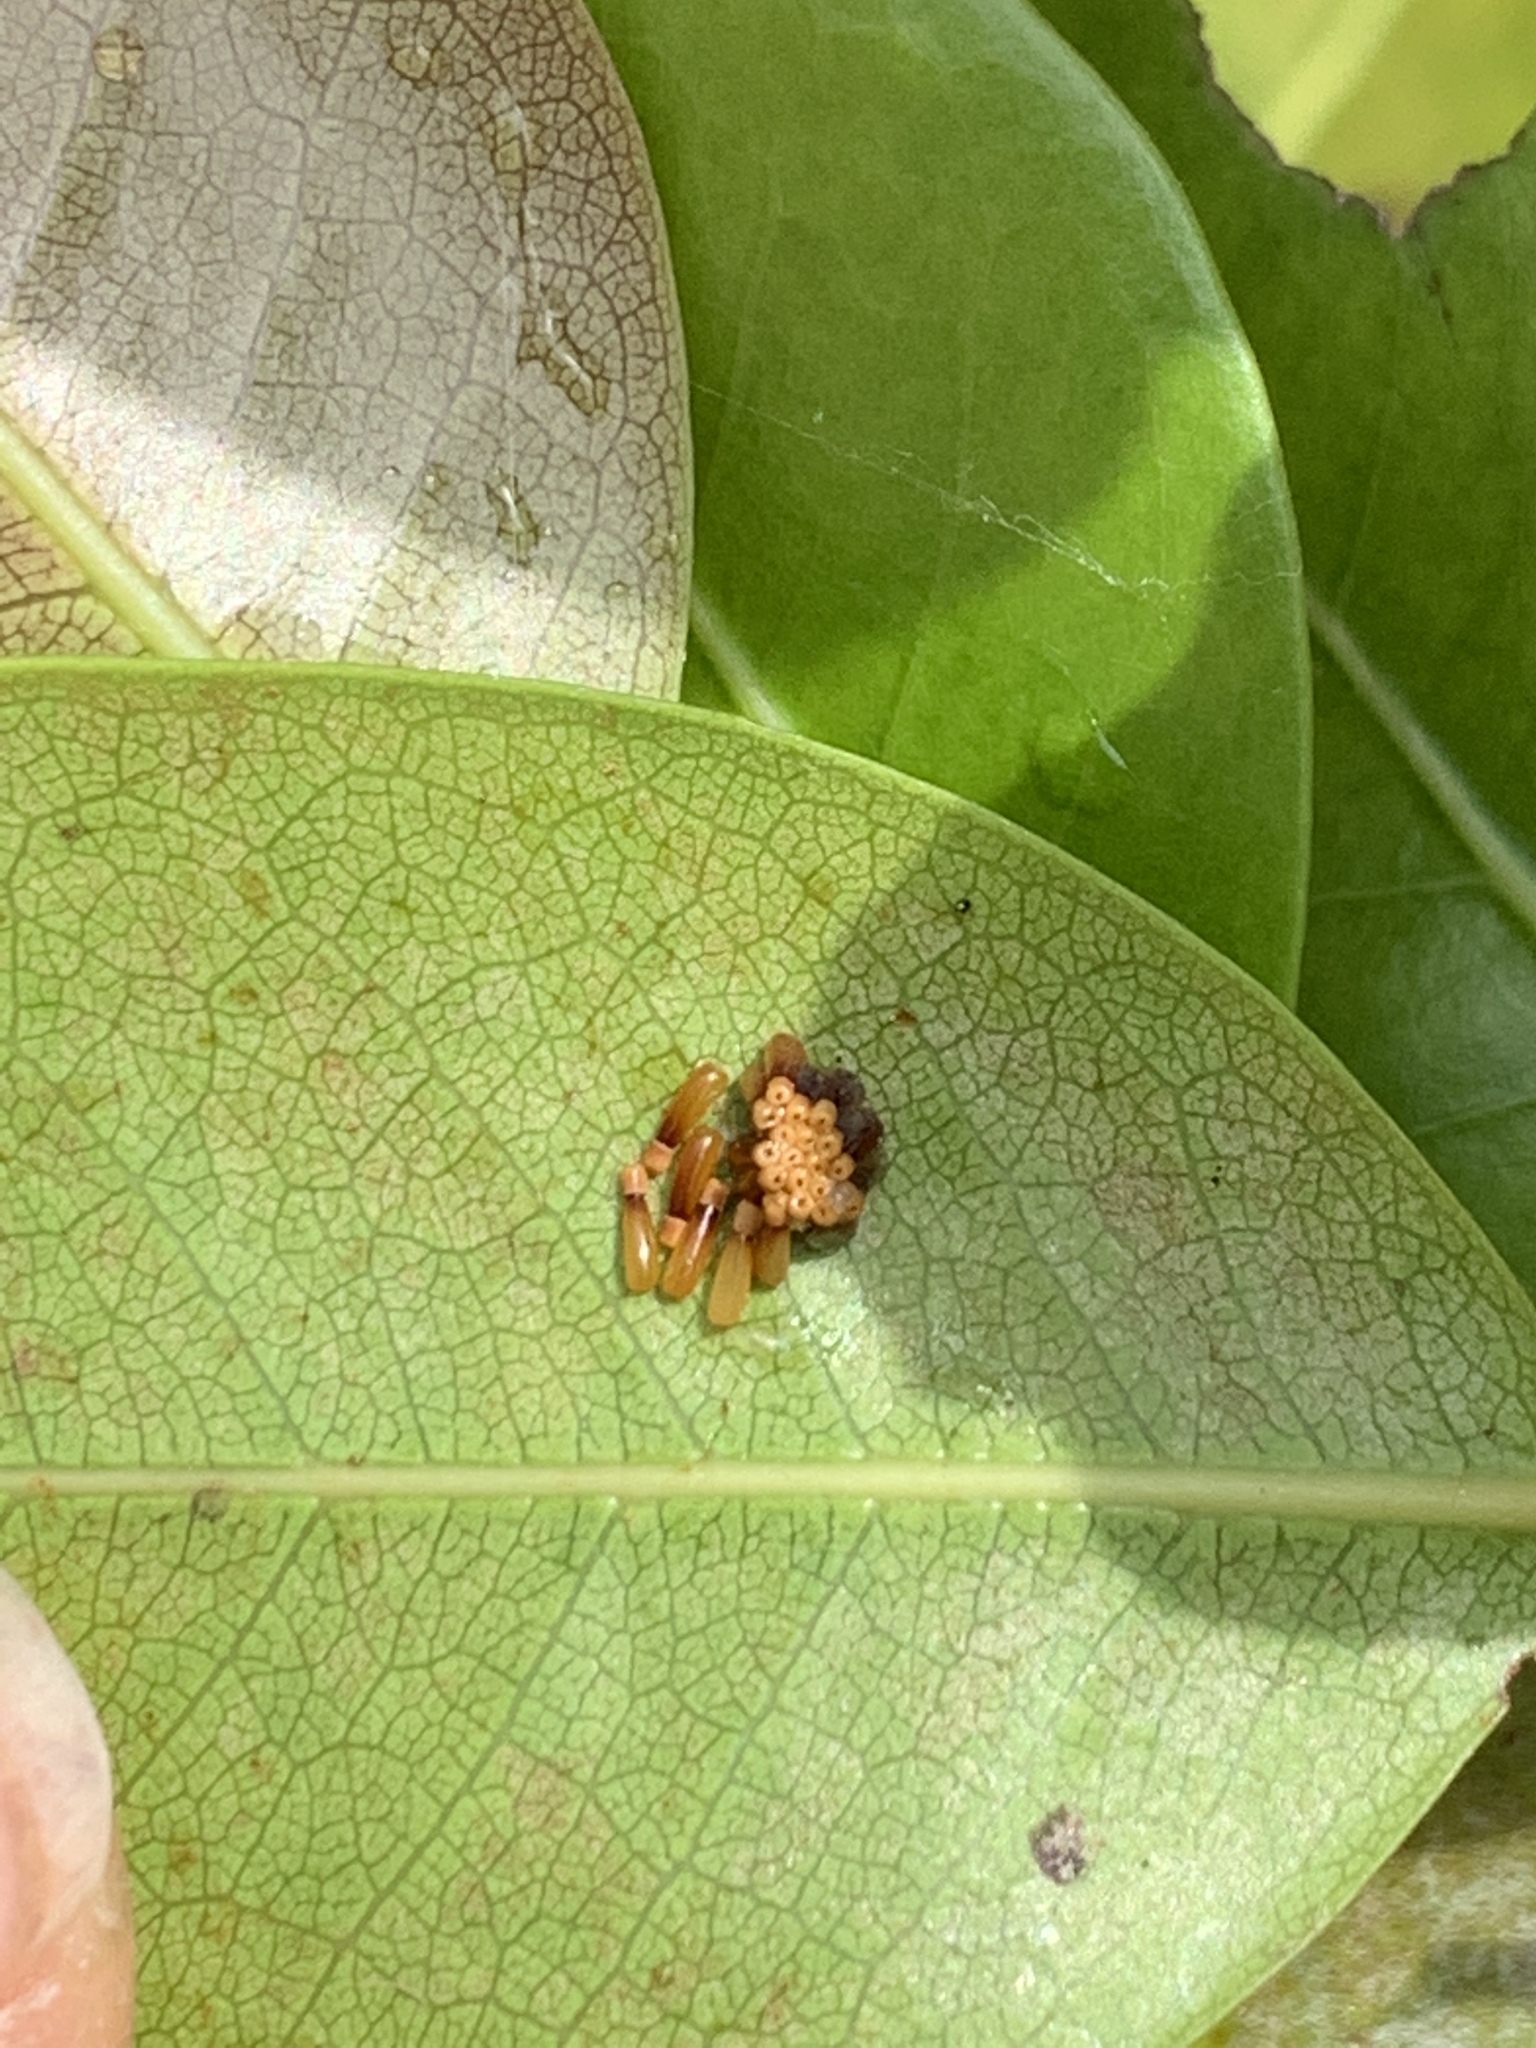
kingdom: Animalia
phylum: Arthropoda
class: Insecta
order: Hemiptera
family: Reduviidae
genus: Zelus
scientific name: Zelus longipes
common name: Milkweed assassin bug
